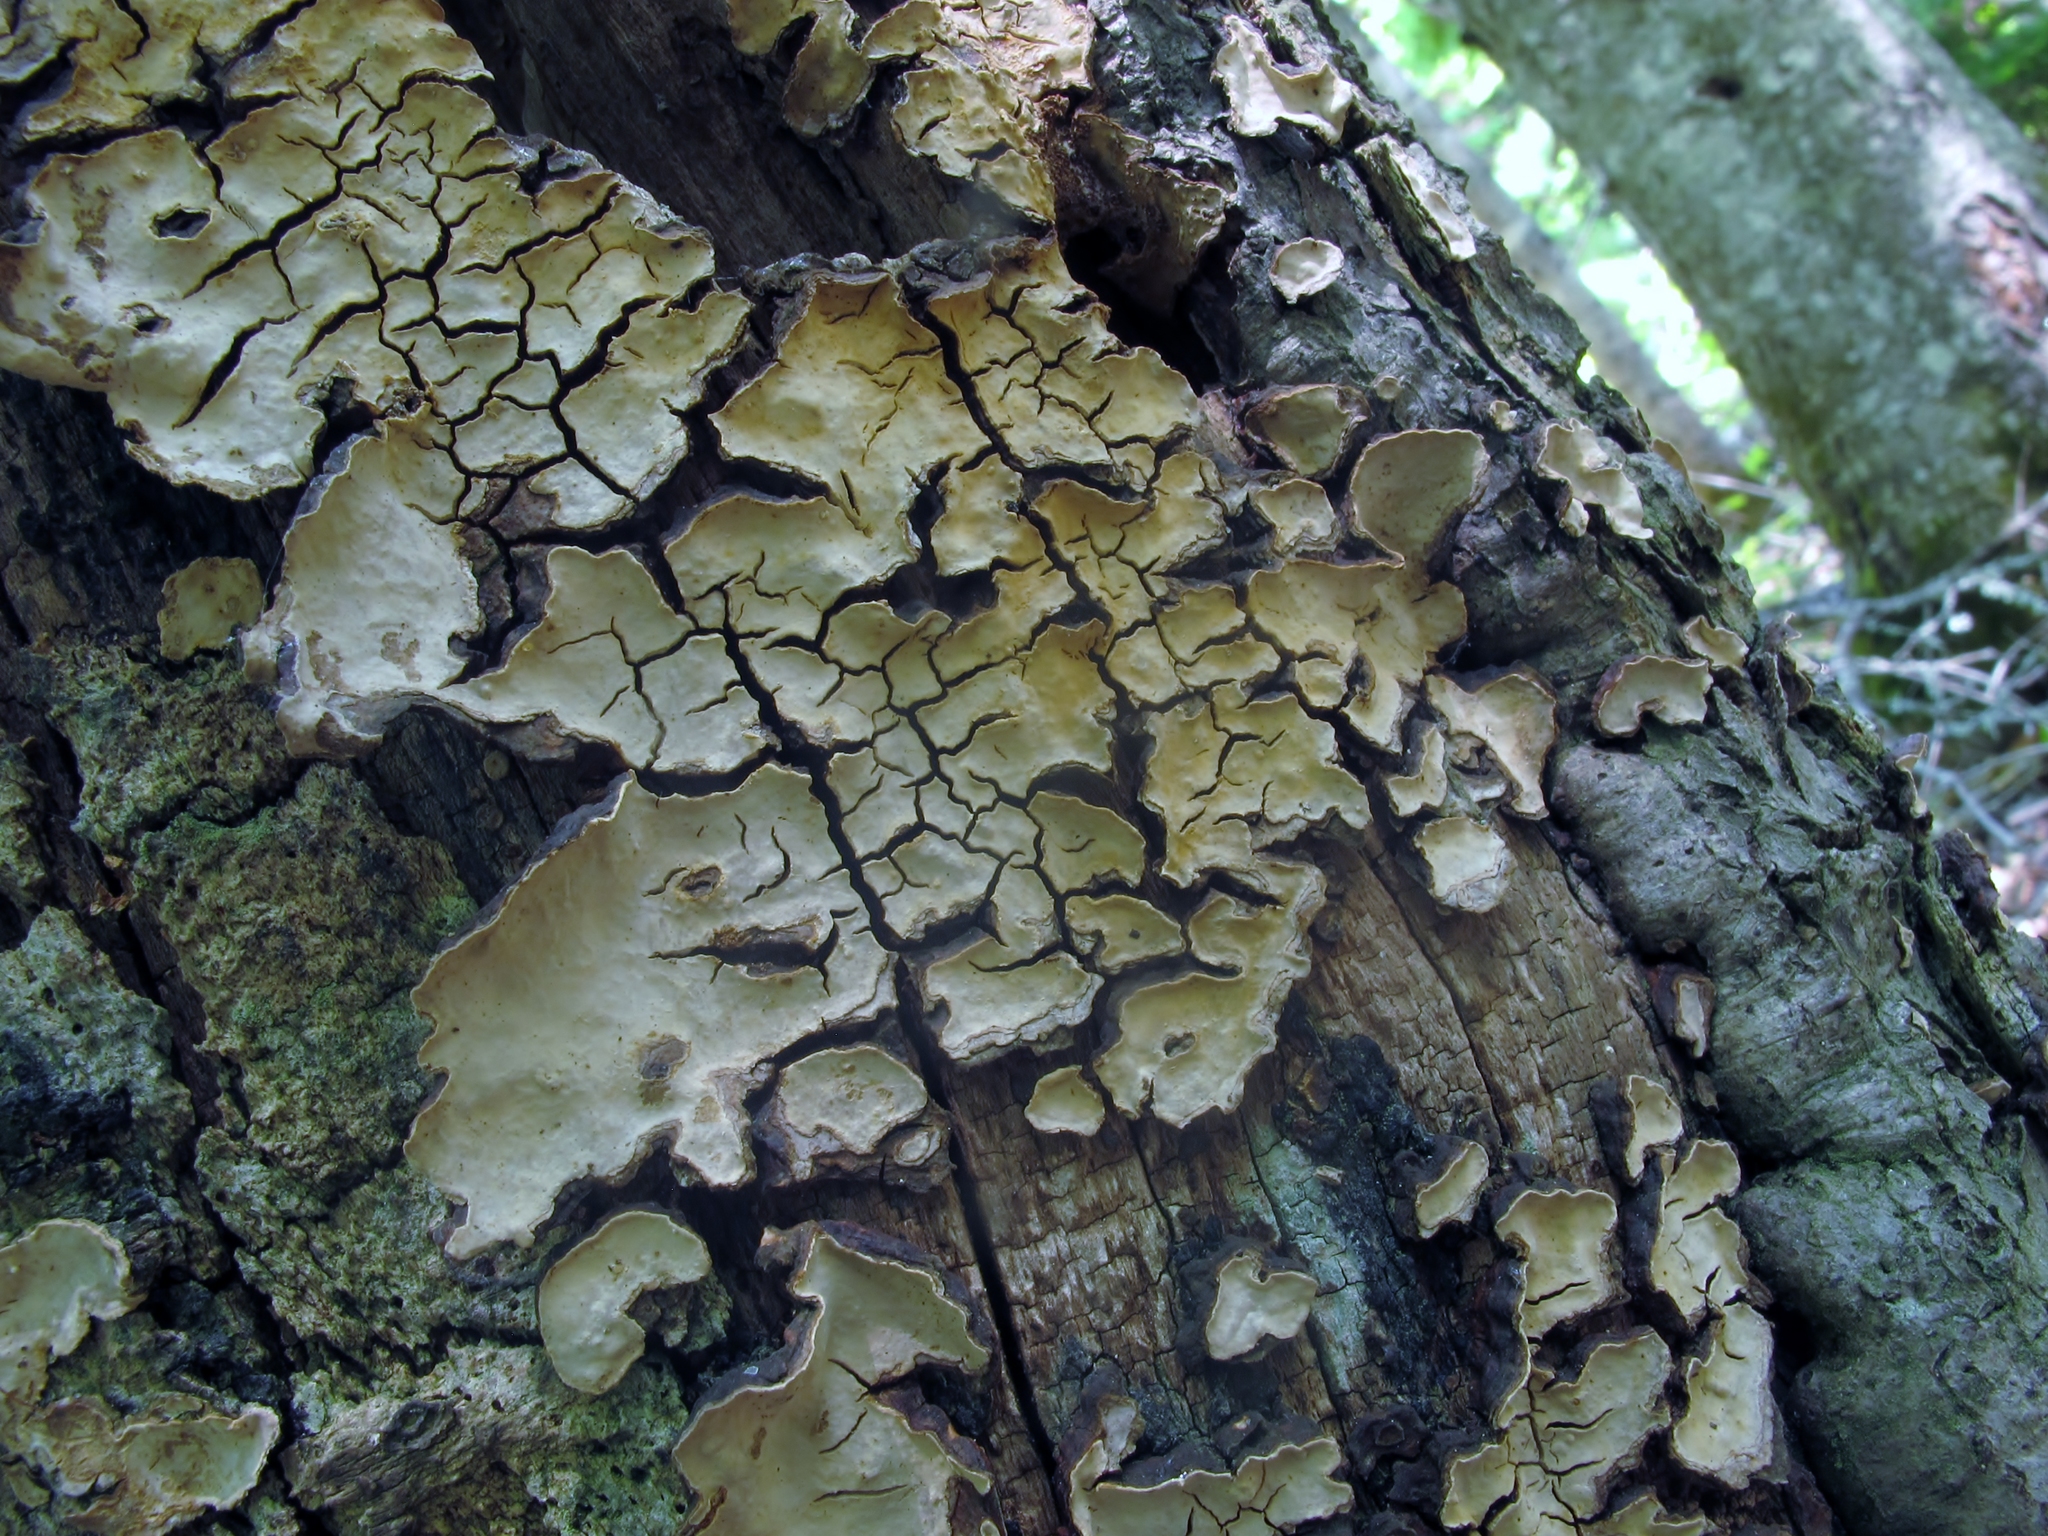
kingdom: Fungi
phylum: Basidiomycota
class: Agaricomycetes
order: Russulales
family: Stereaceae
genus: Xylobolus
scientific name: Xylobolus frustulatus
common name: Ceramic parchment
